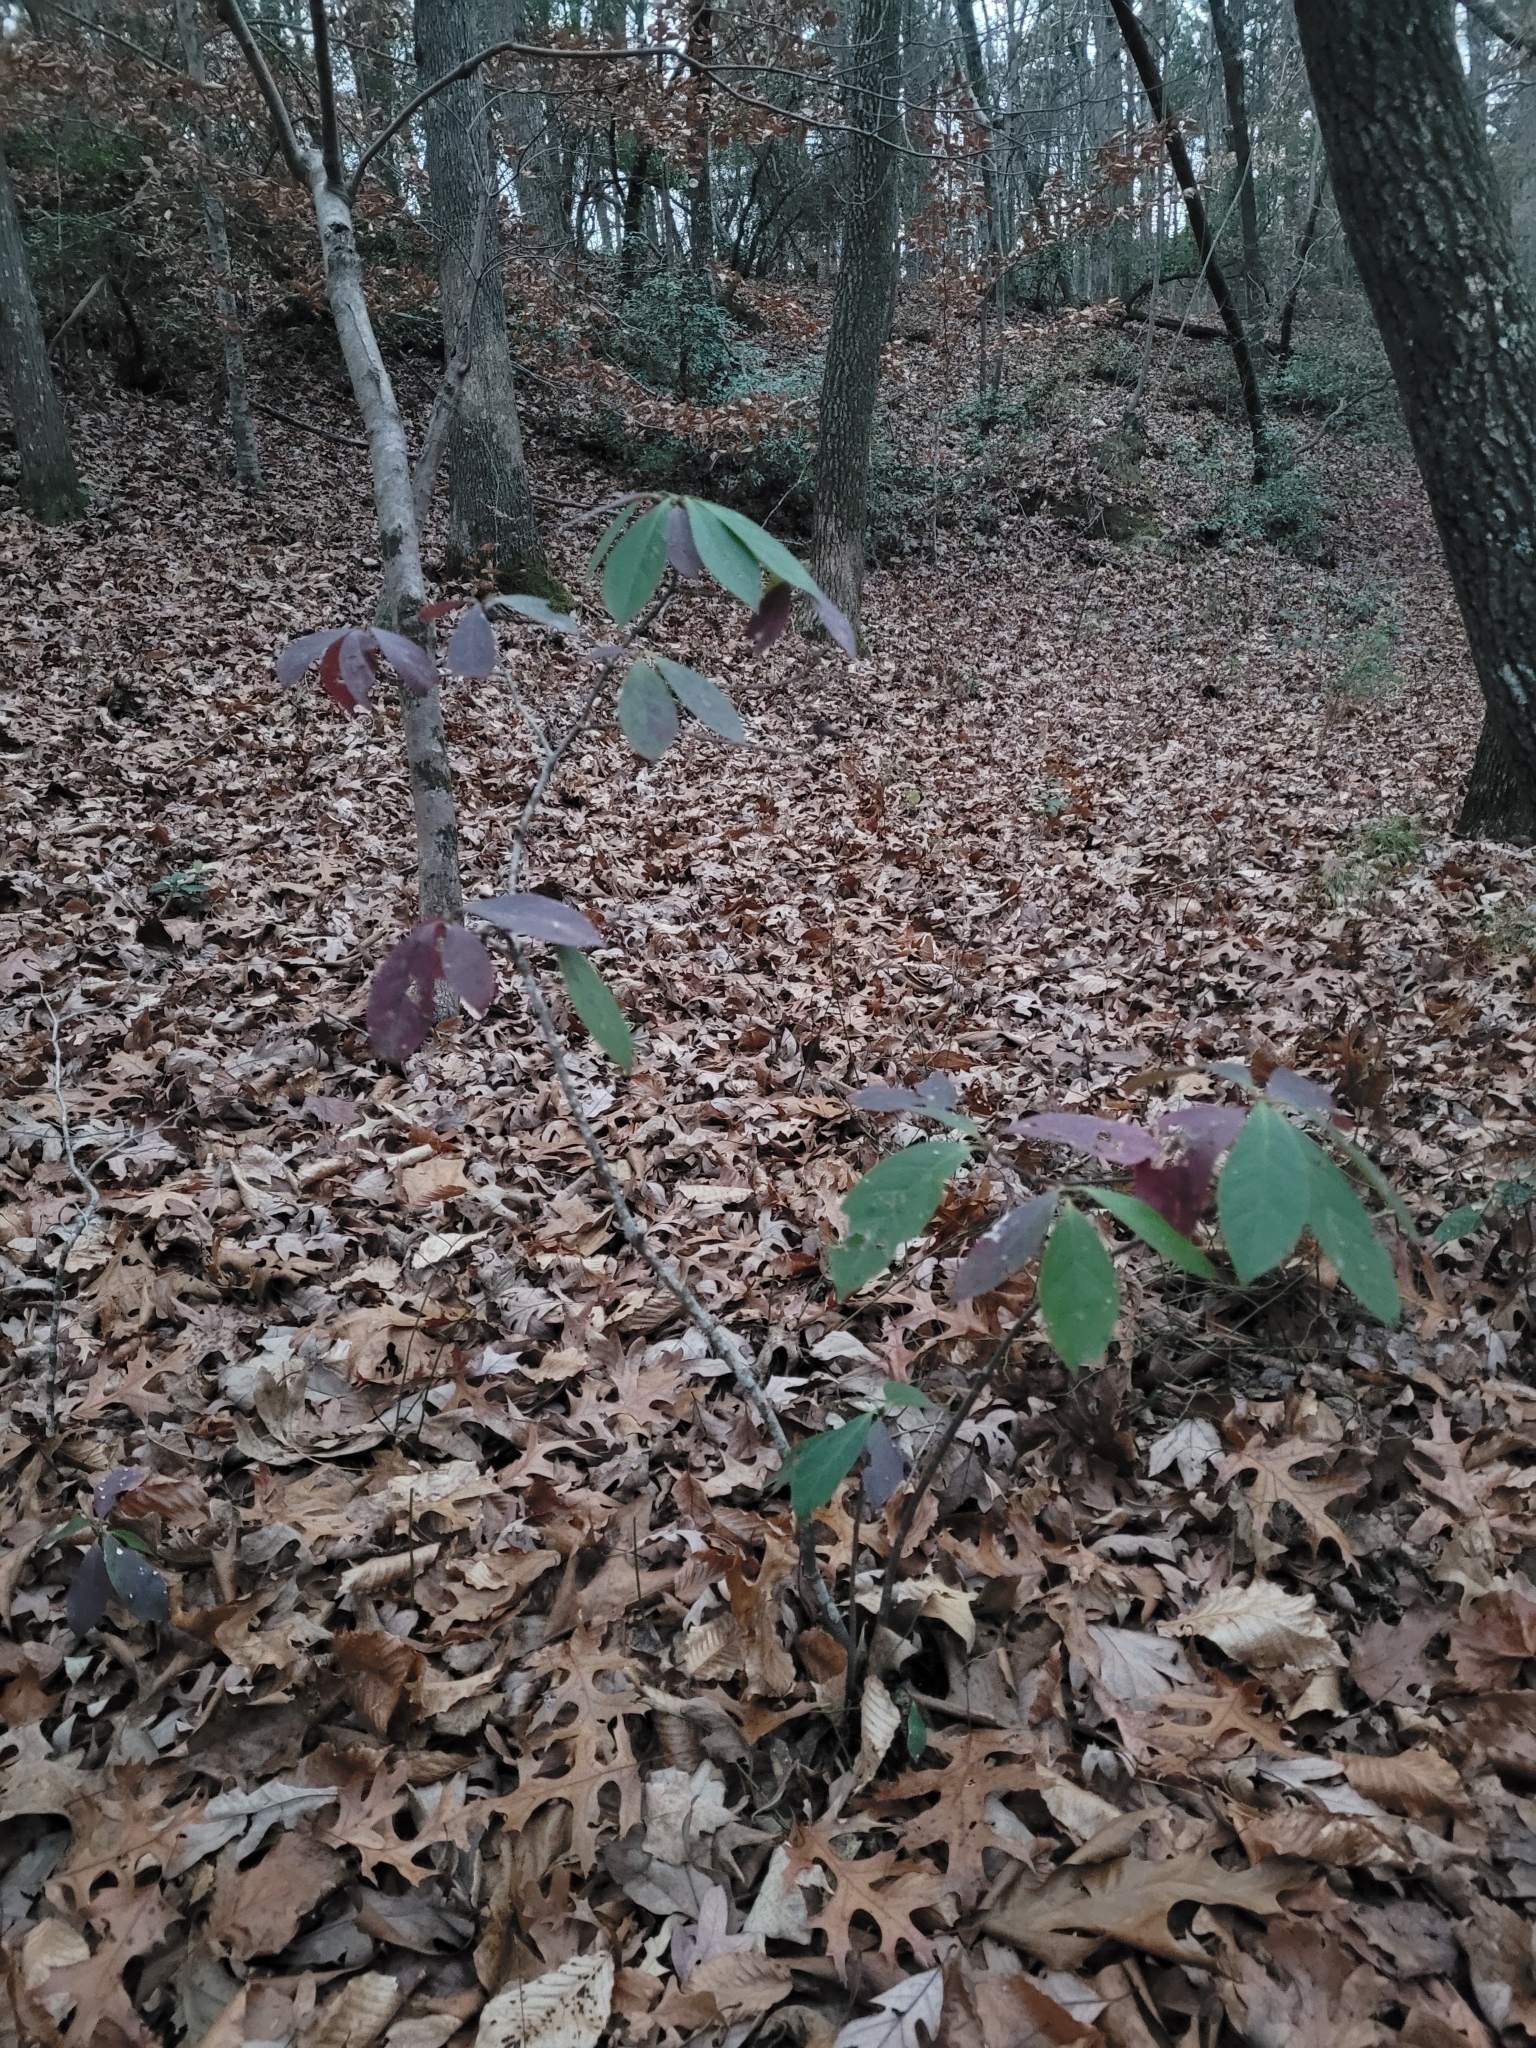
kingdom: Plantae
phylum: Tracheophyta
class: Magnoliopsida
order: Ericales
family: Symplocaceae
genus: Symplocos
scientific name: Symplocos tinctoria
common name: Horse-sugar
